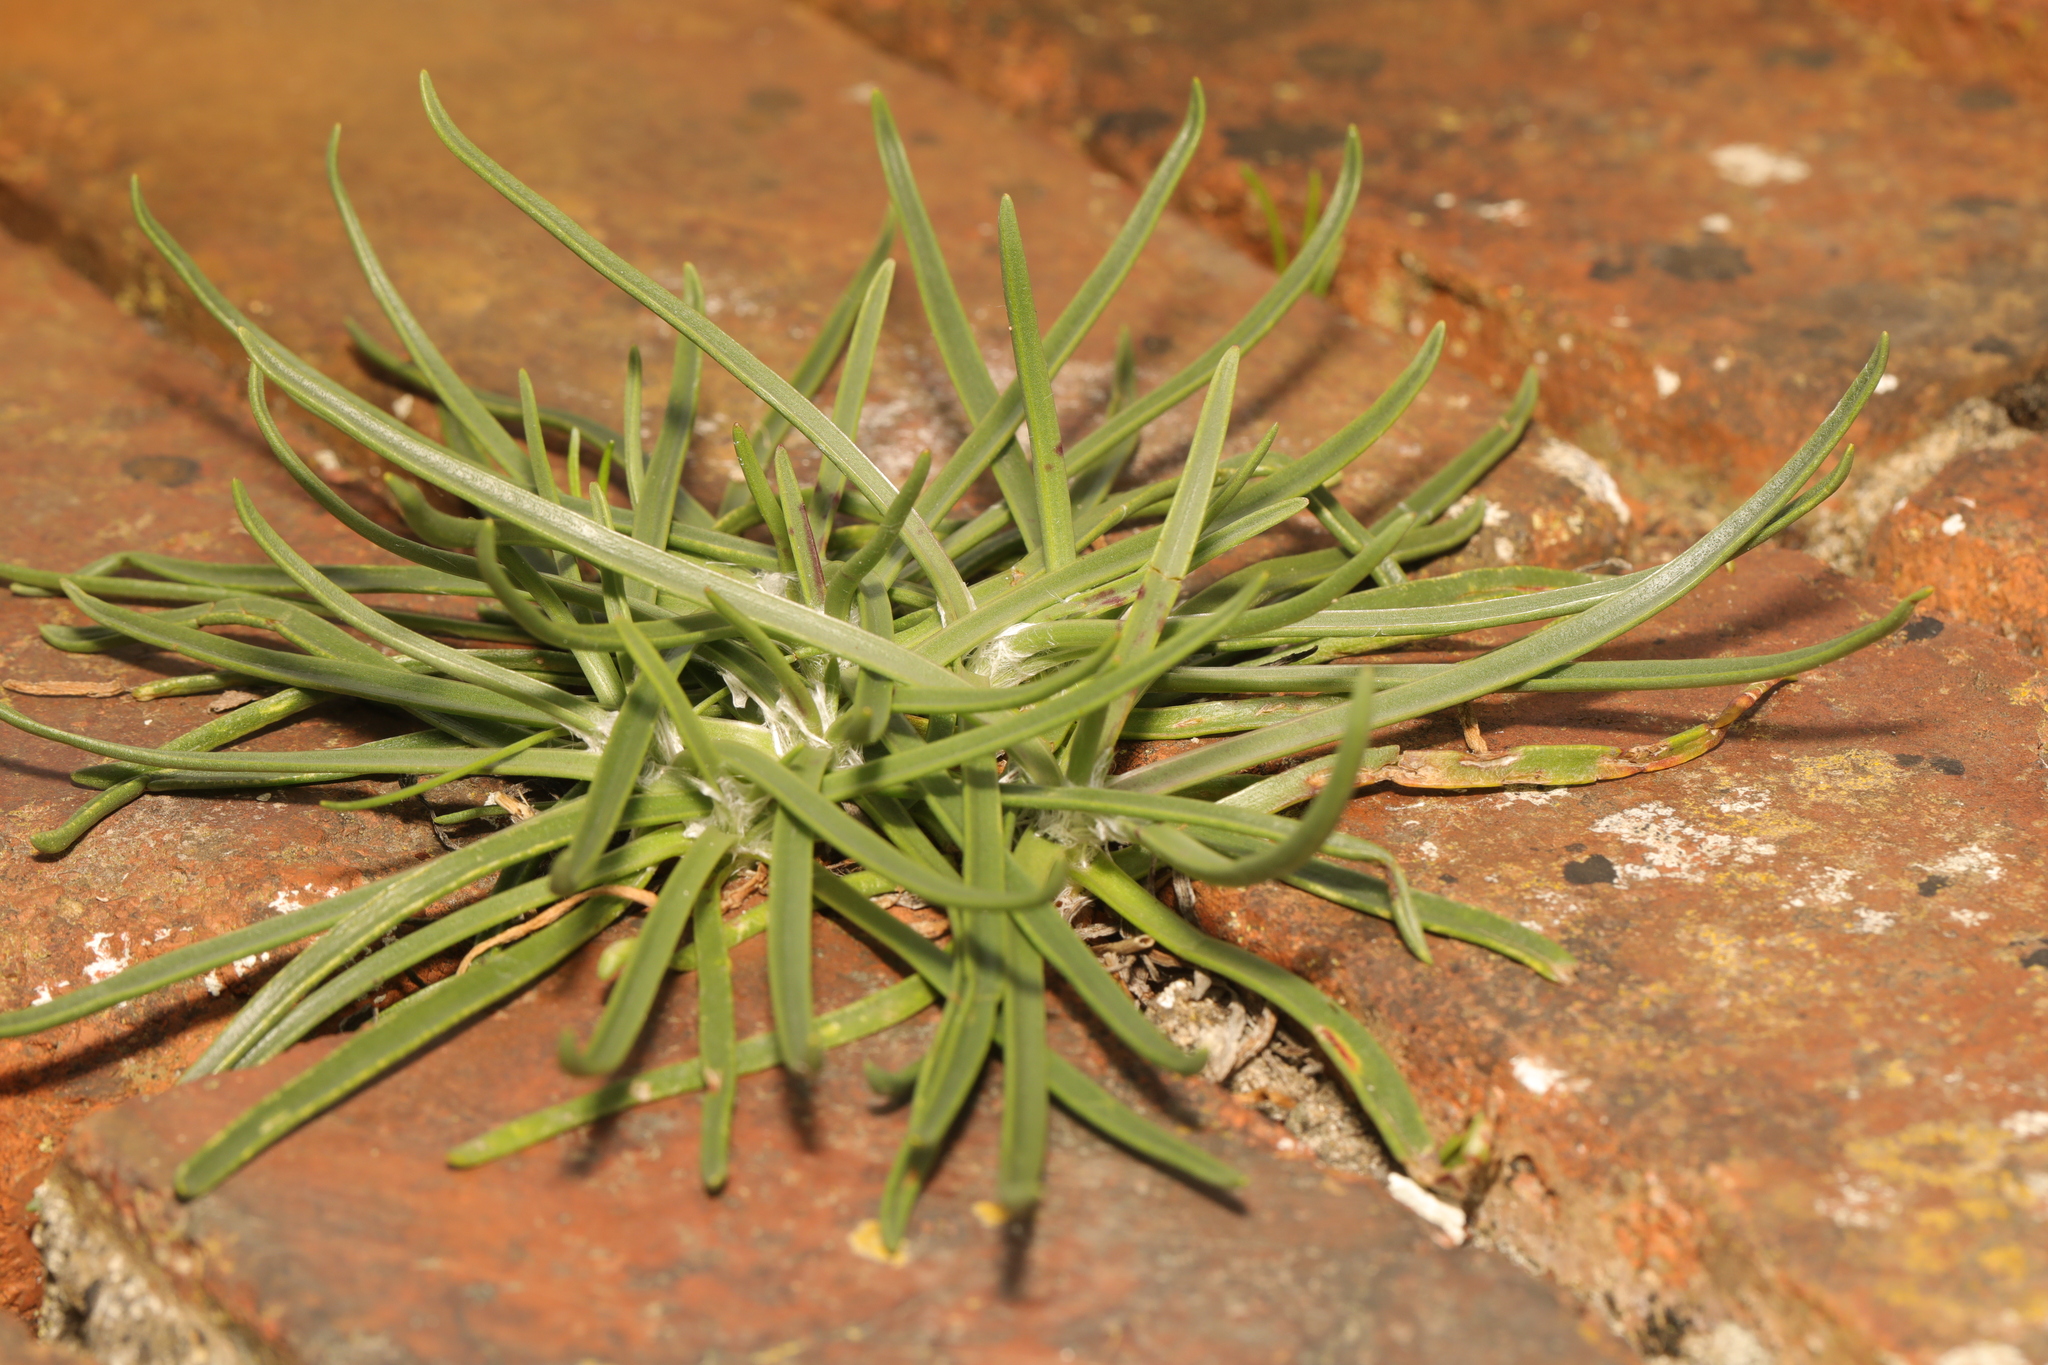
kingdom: Plantae
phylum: Tracheophyta
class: Magnoliopsida
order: Lamiales
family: Plantaginaceae
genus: Plantago
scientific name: Plantago maritima
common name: Sea plantain
